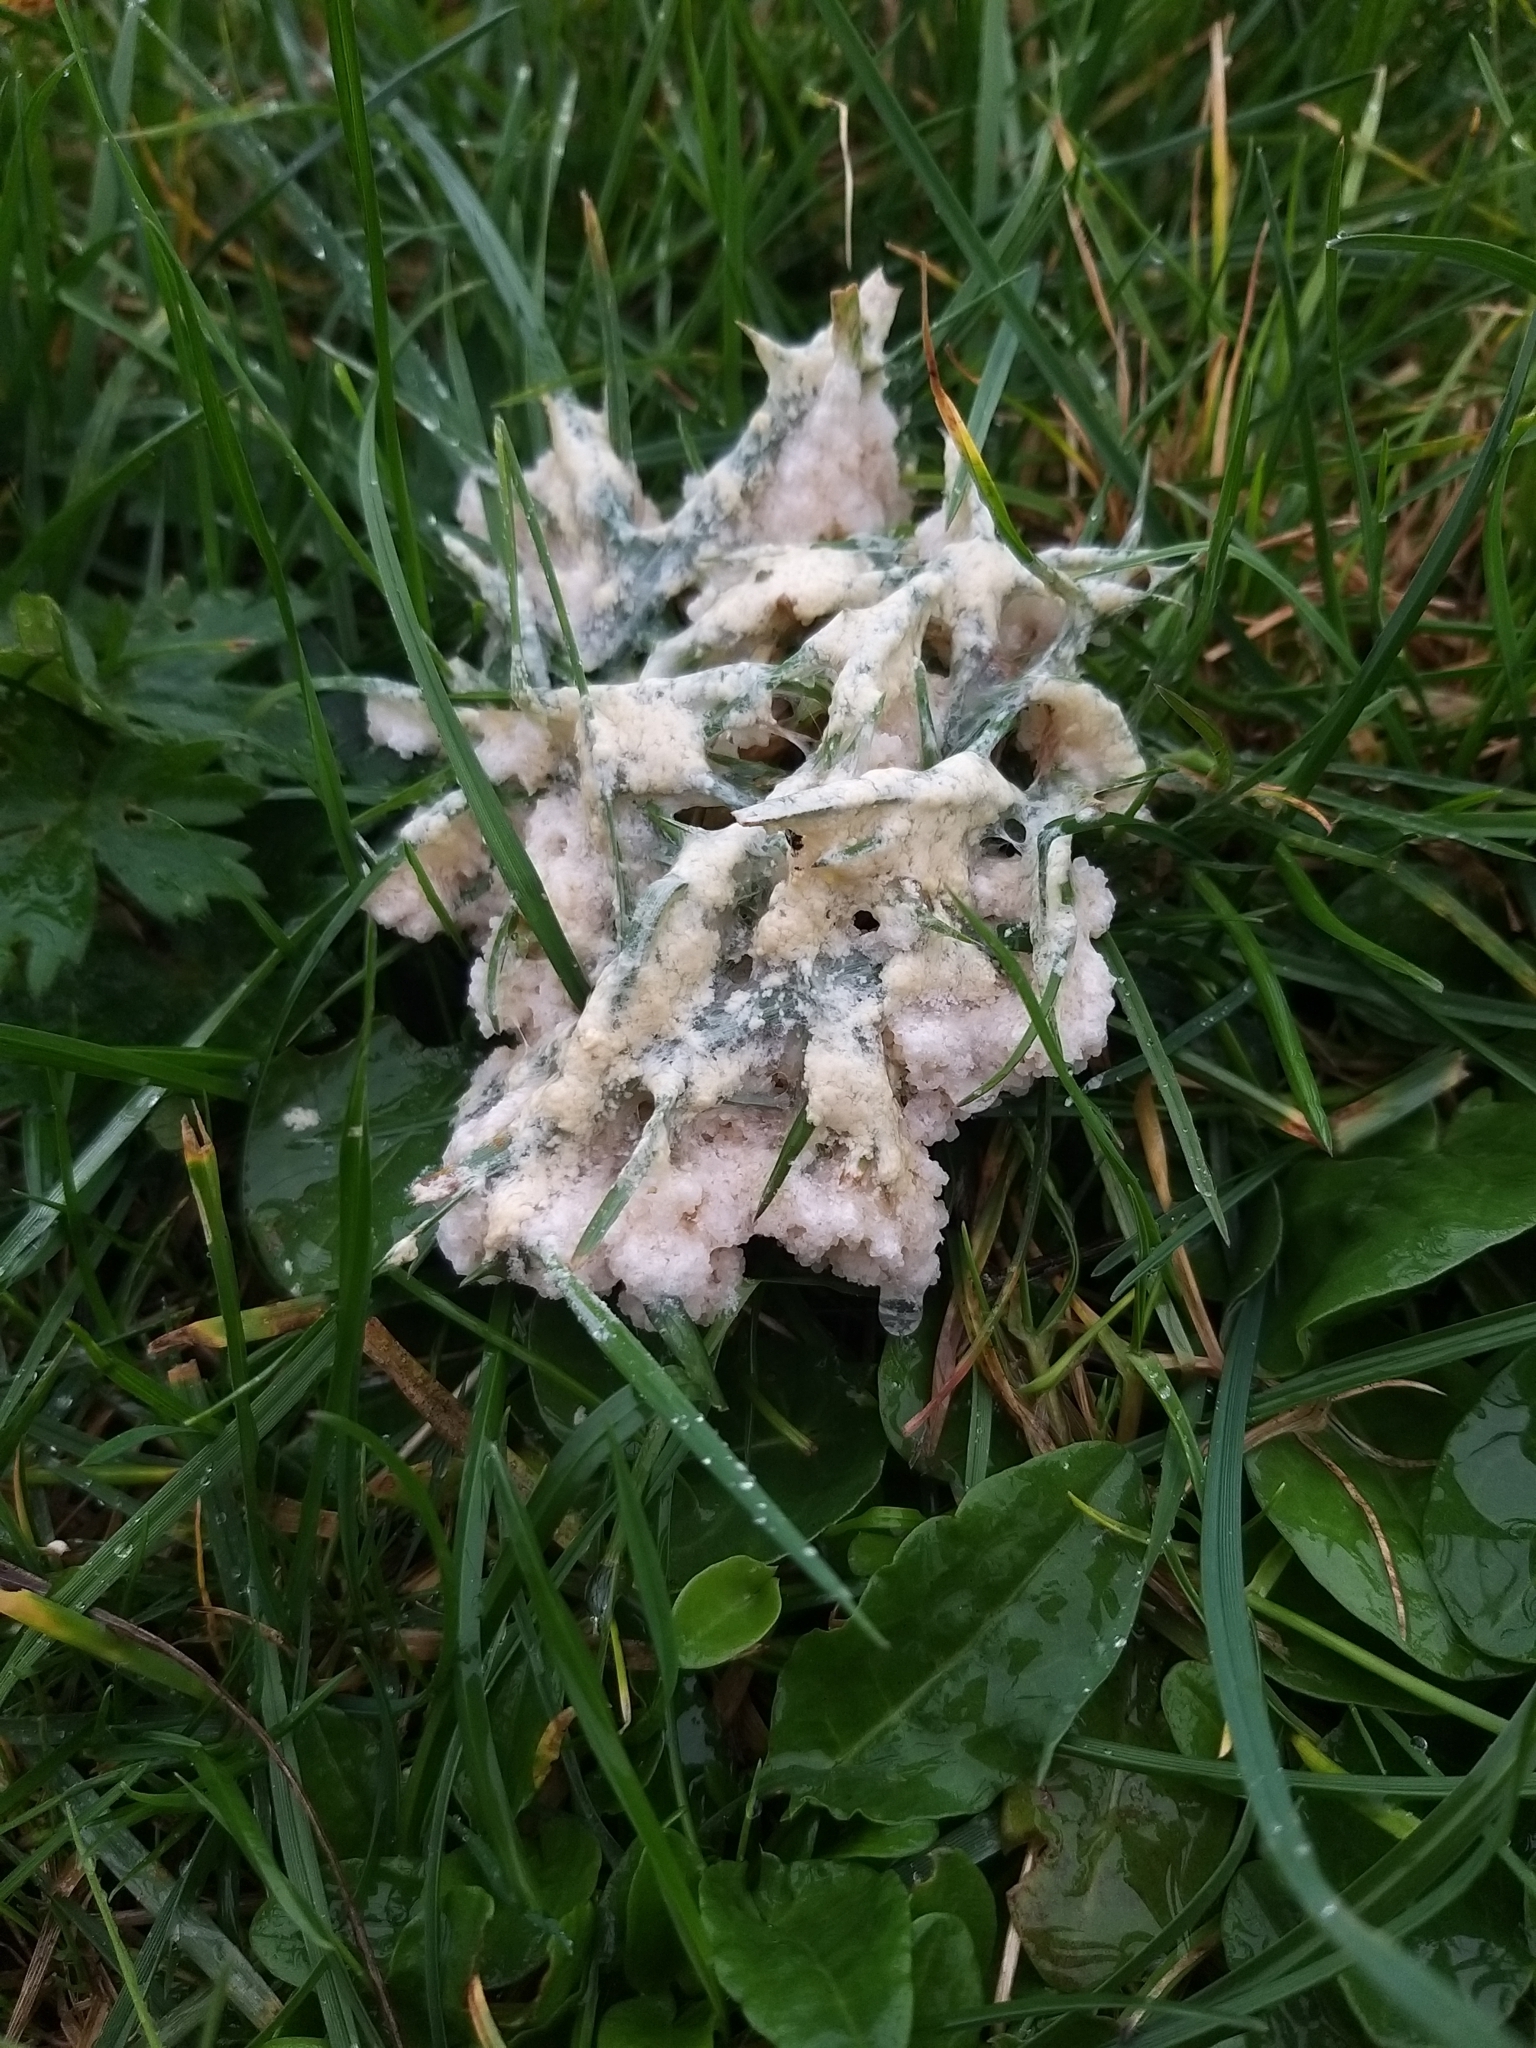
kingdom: Protozoa
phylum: Mycetozoa
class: Myxomycetes
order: Physarales
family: Physaraceae
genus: Didymium
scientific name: Didymium
